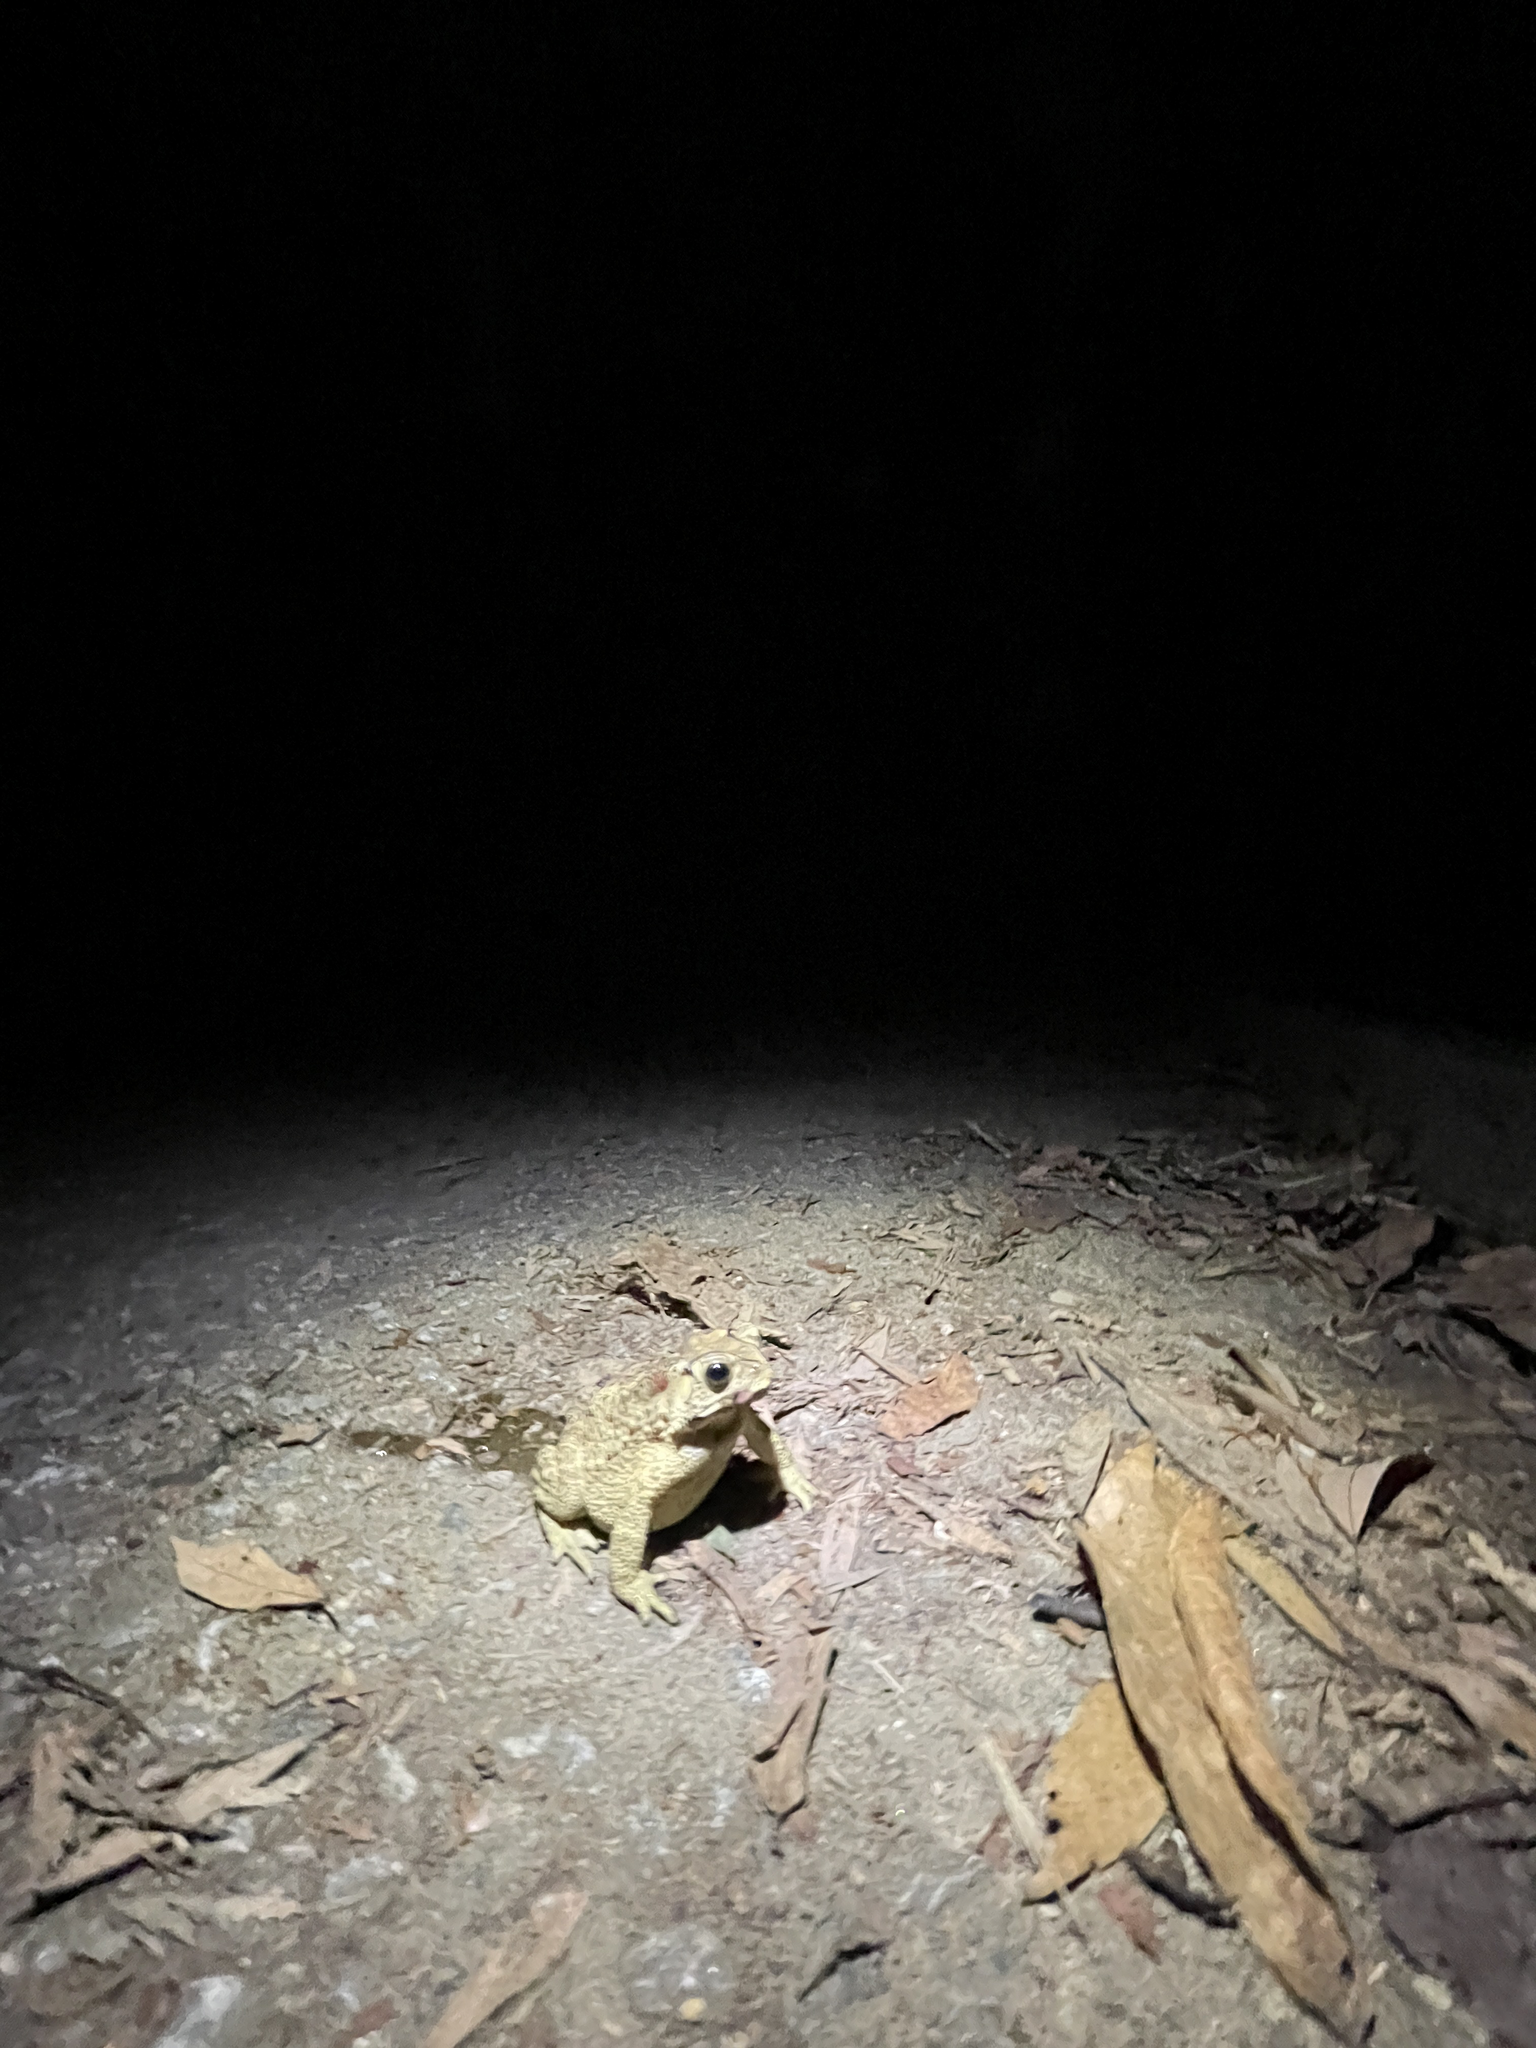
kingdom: Animalia
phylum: Chordata
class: Amphibia
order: Anura
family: Bufonidae
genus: Duttaphrynus
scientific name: Duttaphrynus melanostictus
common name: Common sunda toad
